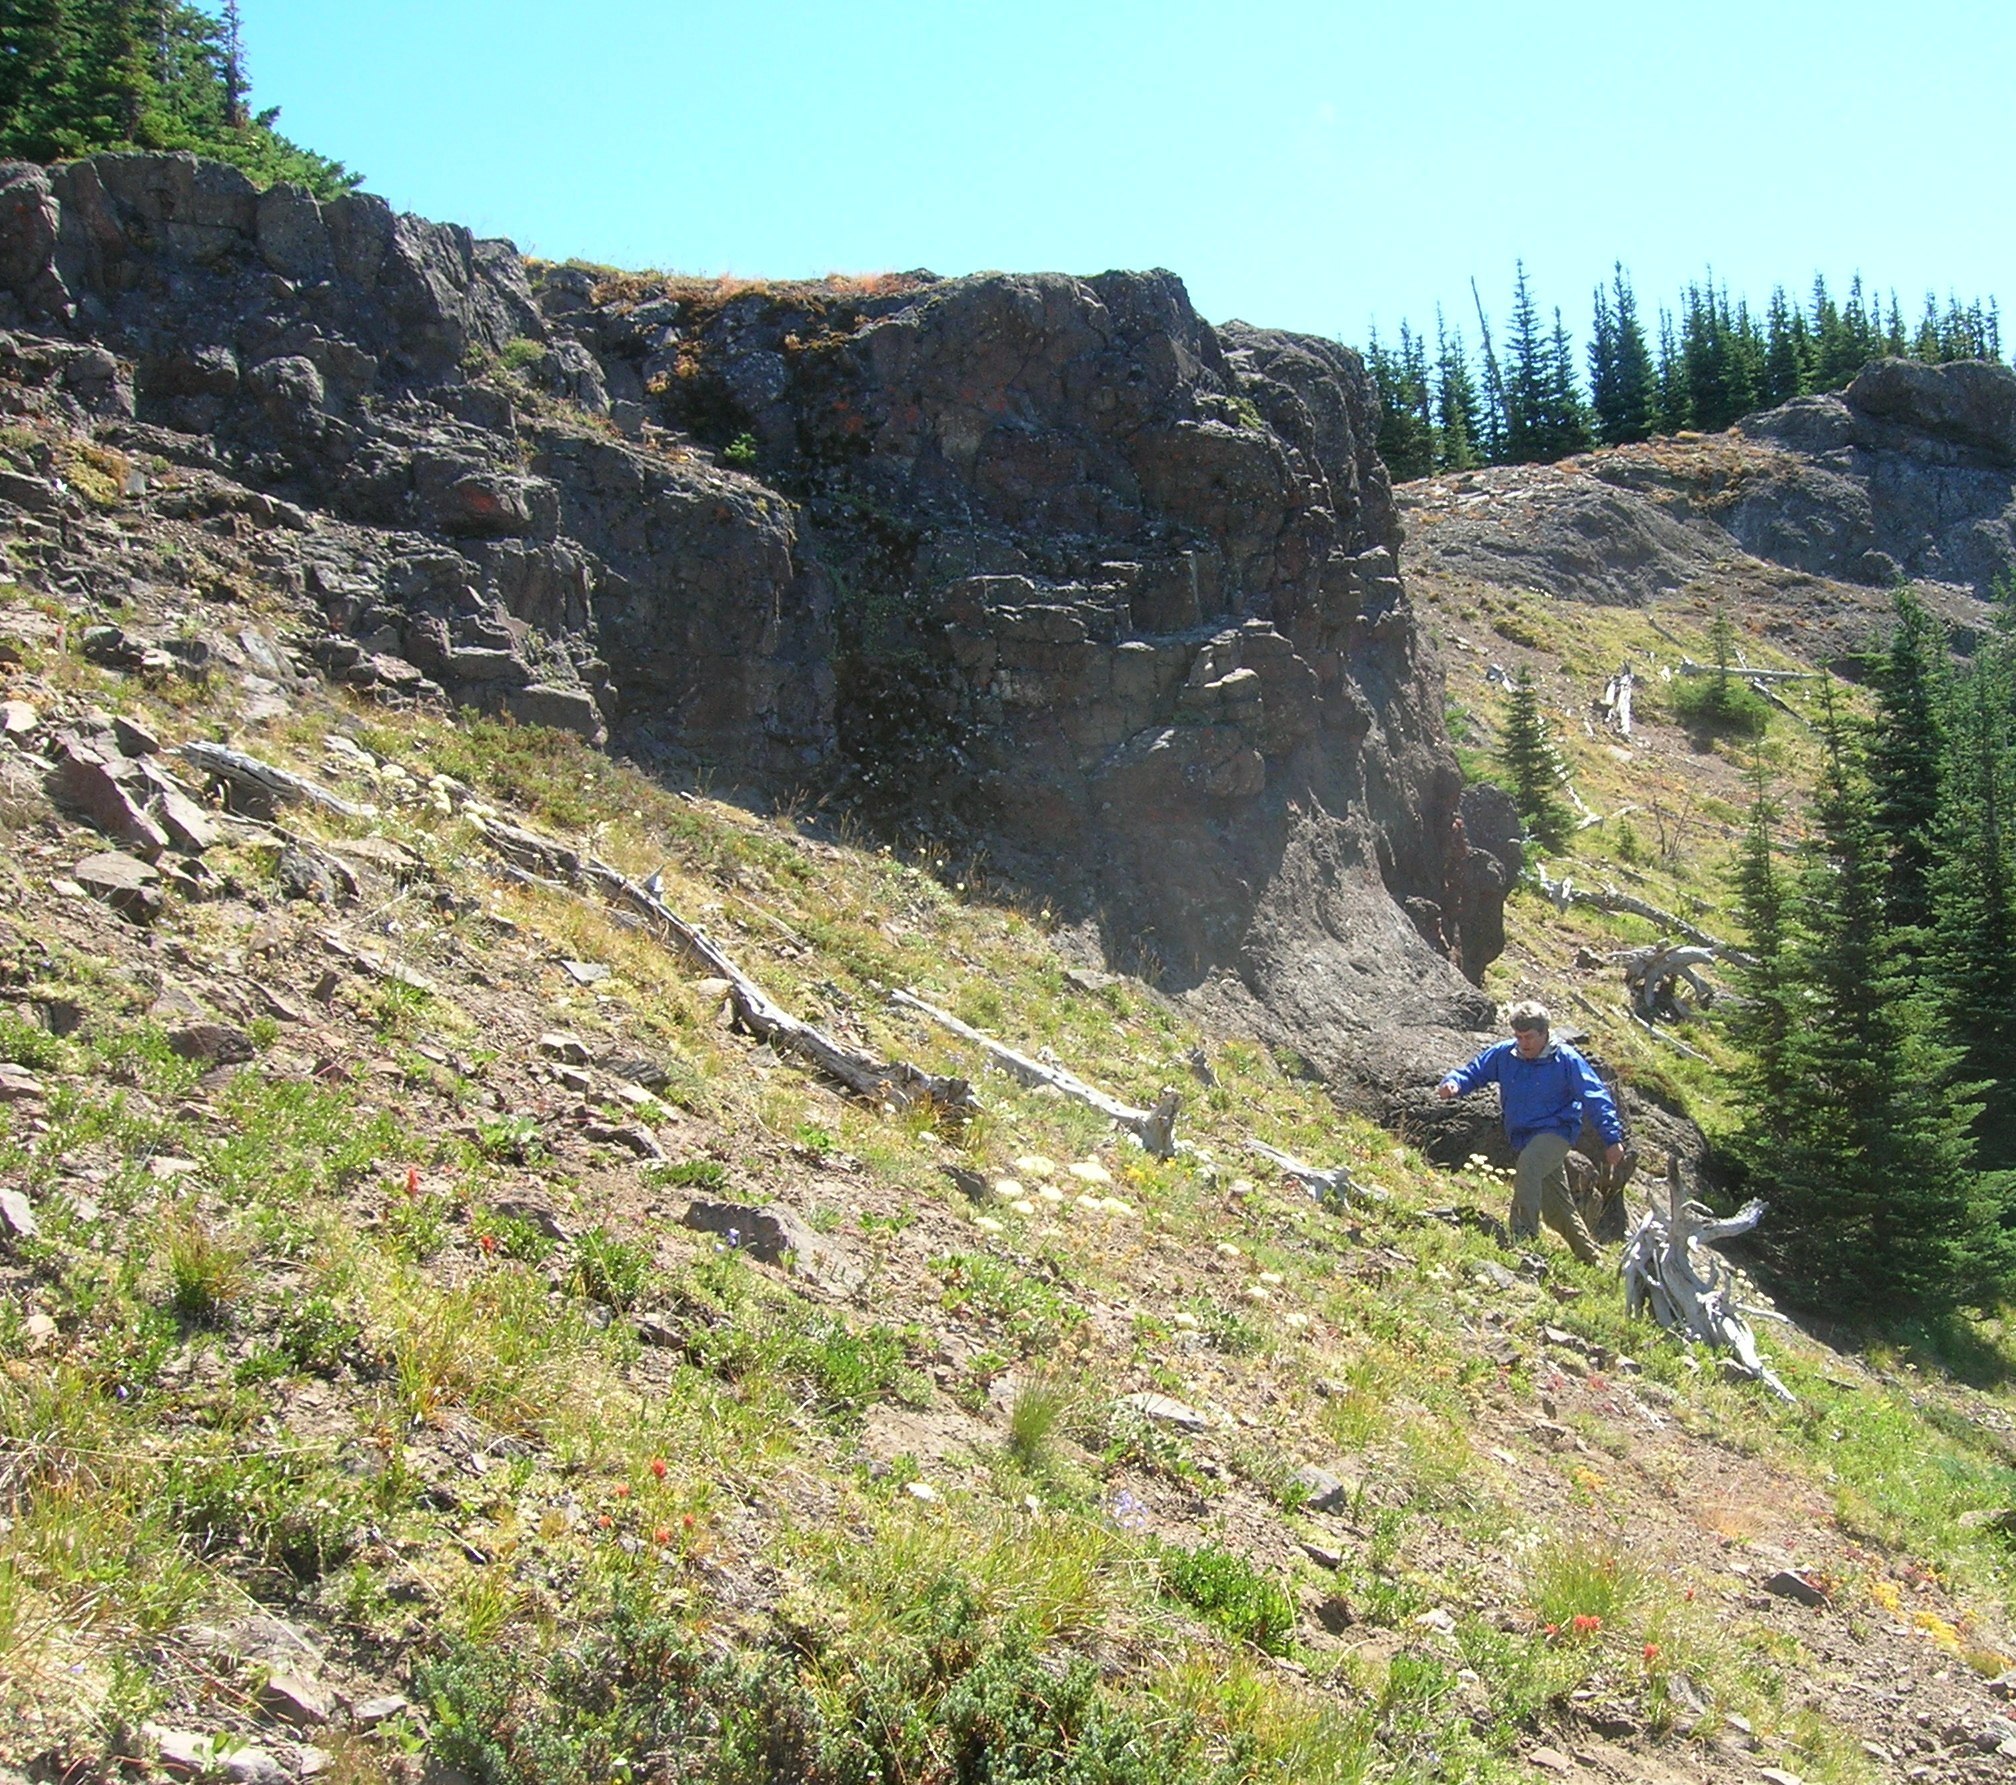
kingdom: Plantae
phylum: Tracheophyta
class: Magnoliopsida
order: Caryophyllales
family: Polygonaceae
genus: Eriogonum
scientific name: Eriogonum compositum
